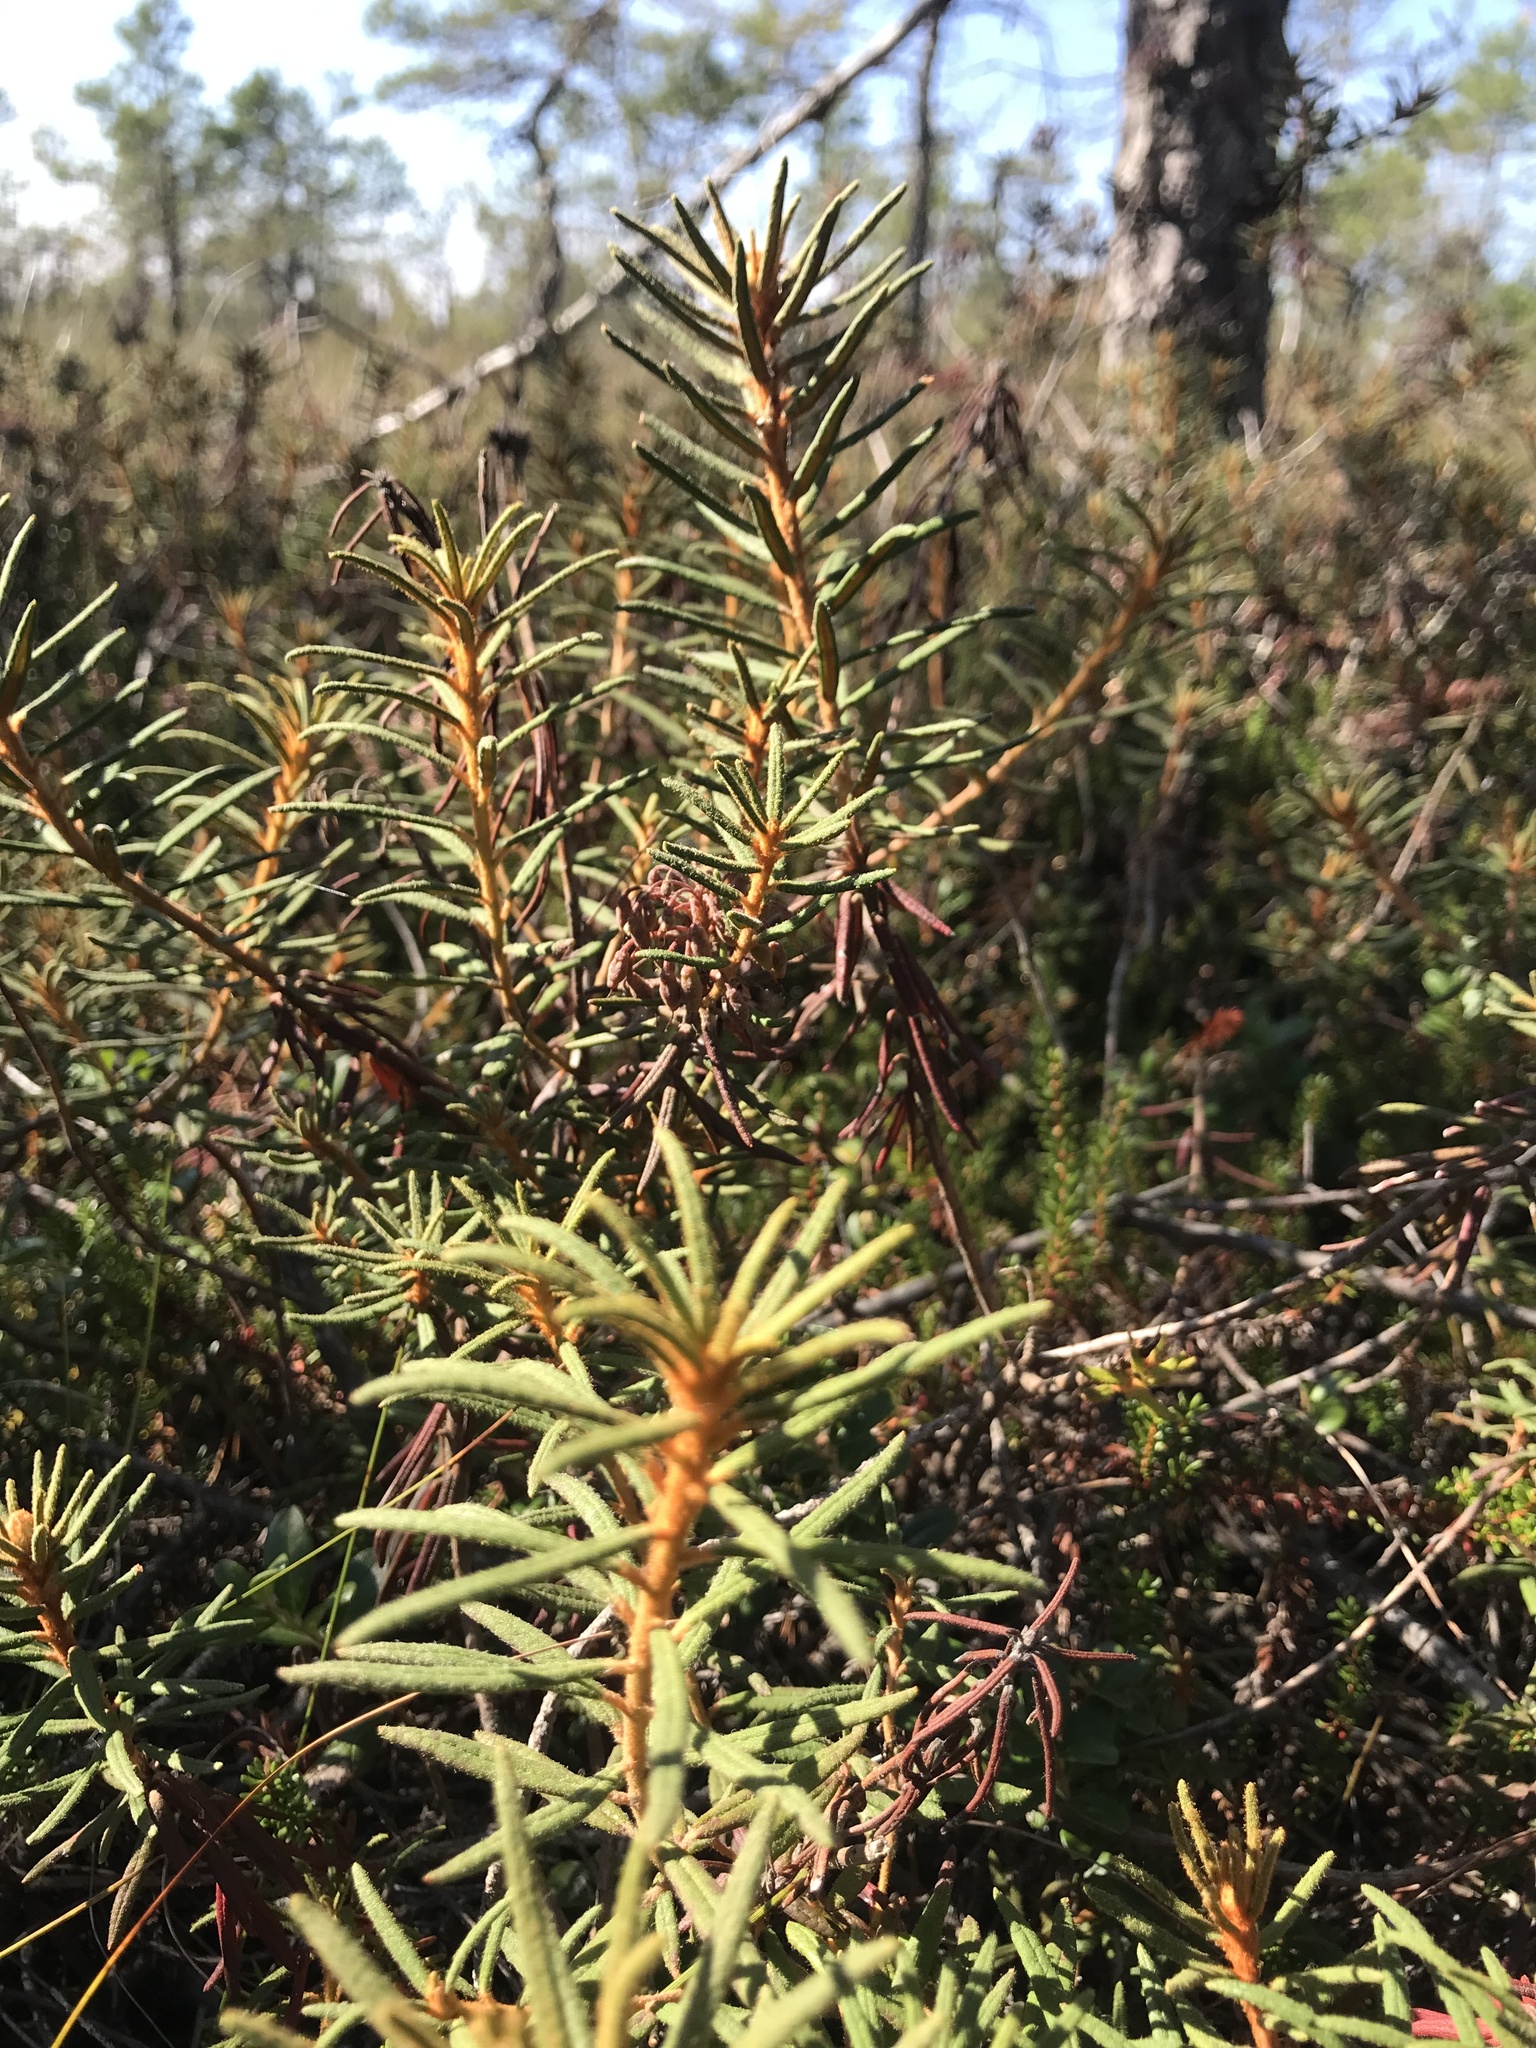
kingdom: Plantae
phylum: Tracheophyta
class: Magnoliopsida
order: Ericales
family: Ericaceae
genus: Rhododendron
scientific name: Rhododendron tomentosum
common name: Marsh labrador tea
